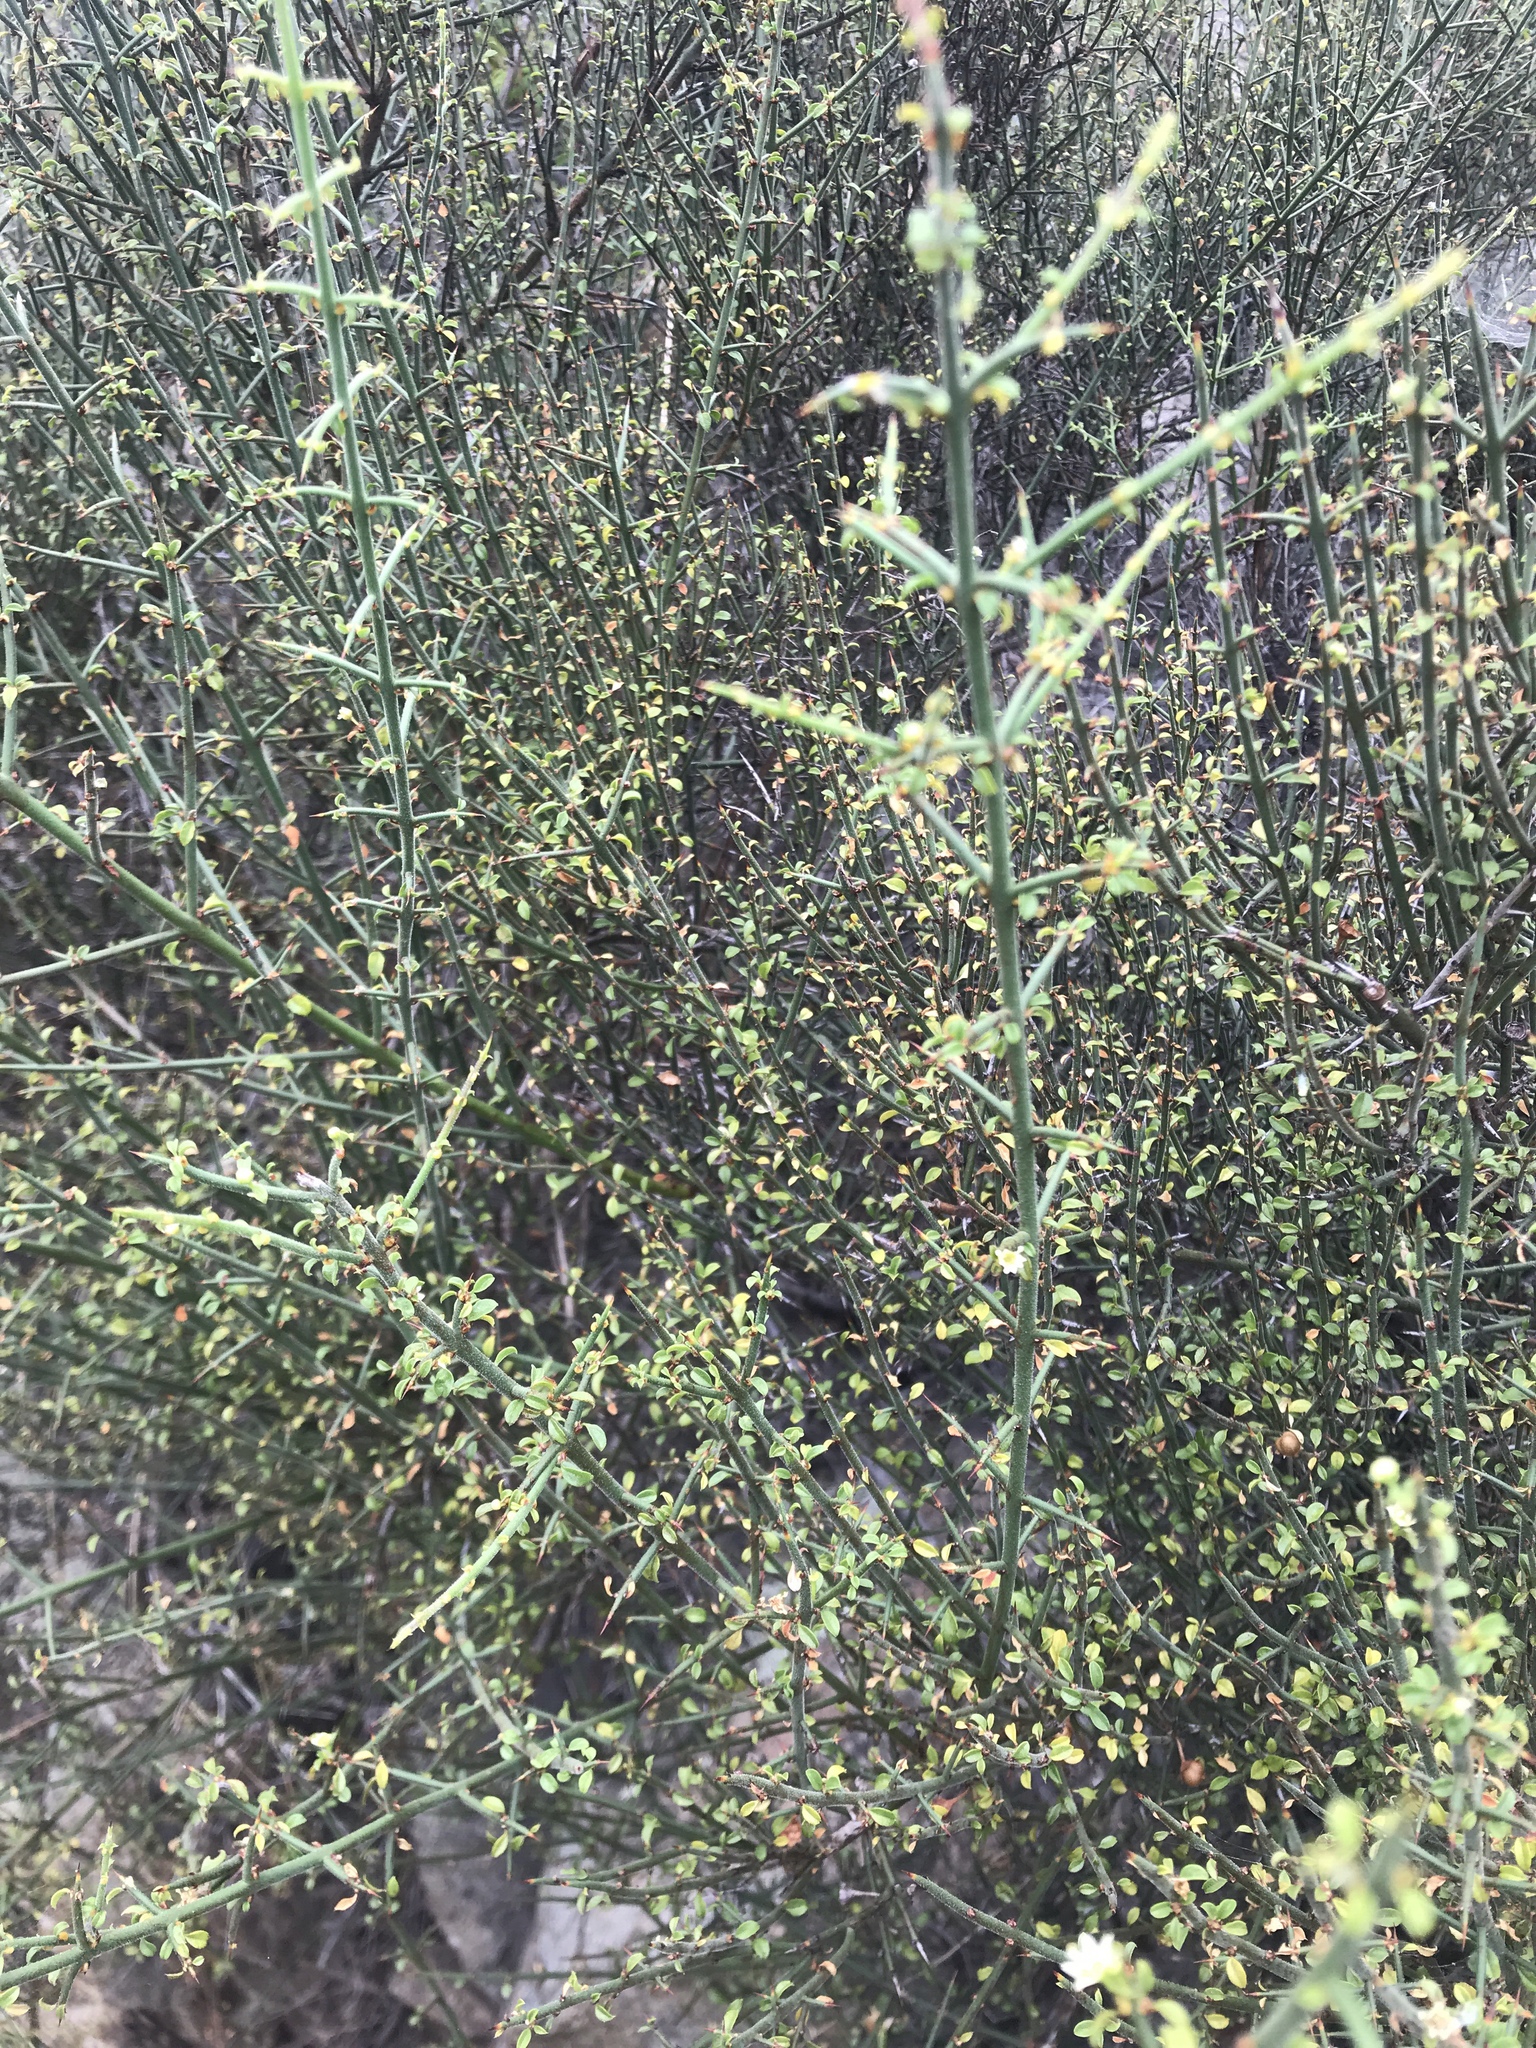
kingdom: Plantae
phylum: Tracheophyta
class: Magnoliopsida
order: Rosales
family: Rhamnaceae
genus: Adolphia
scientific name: Adolphia californica
